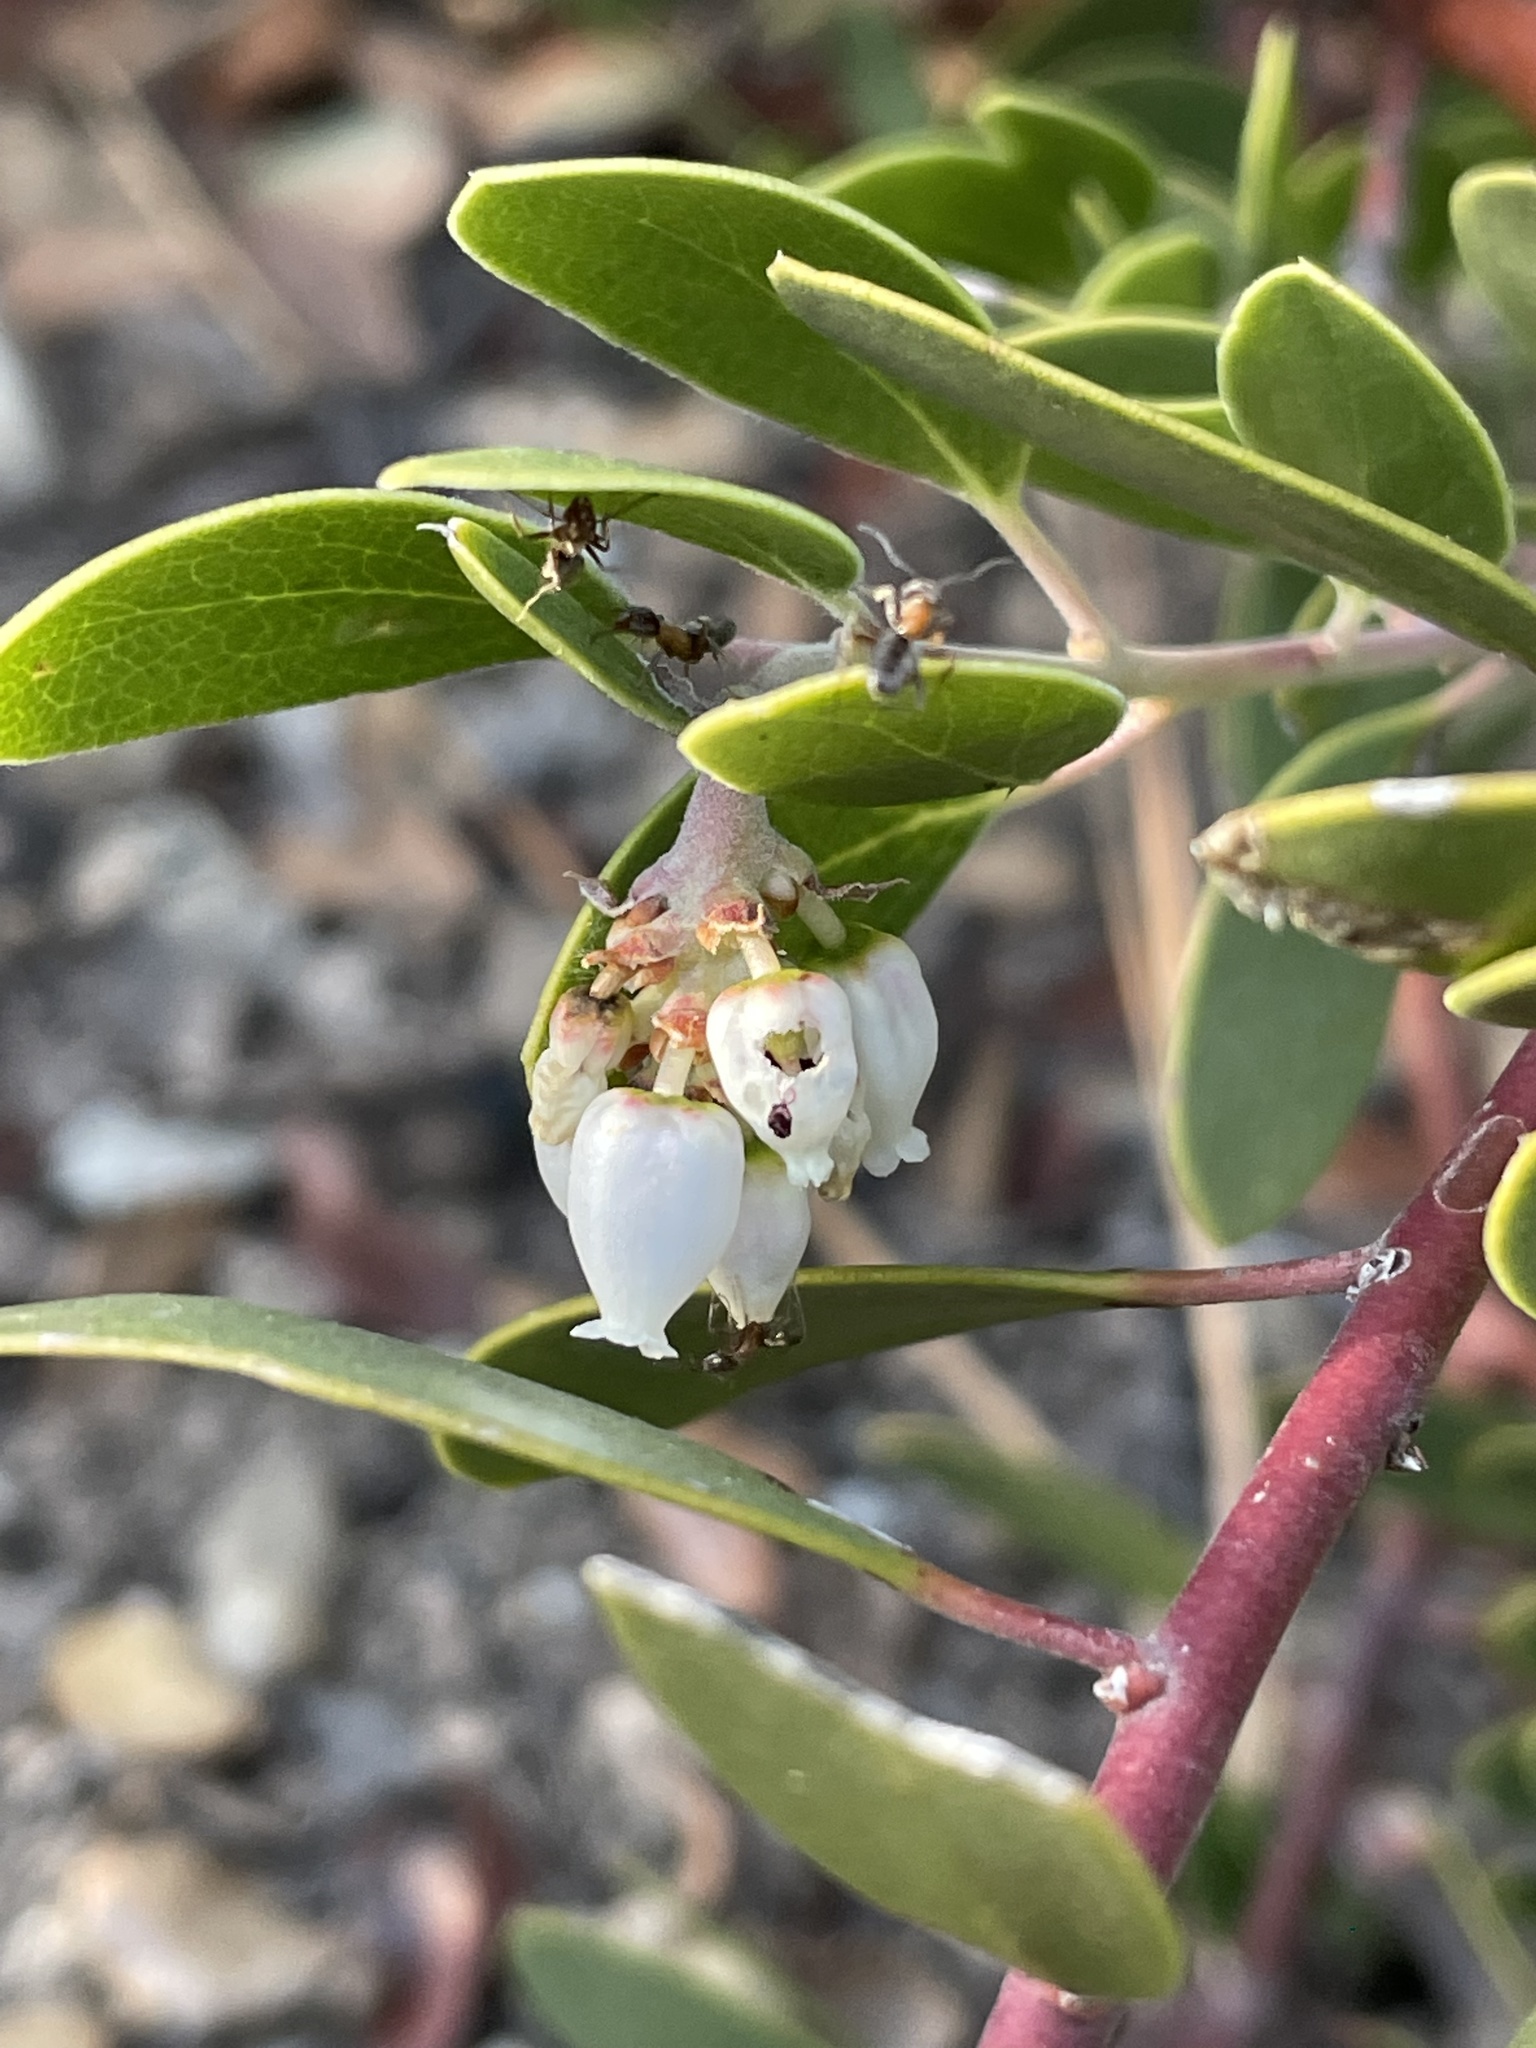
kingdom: Plantae
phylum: Tracheophyta
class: Magnoliopsida
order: Ericales
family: Ericaceae
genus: Arctostaphylos
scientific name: Arctostaphylos pungens
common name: Mexican manzanita
